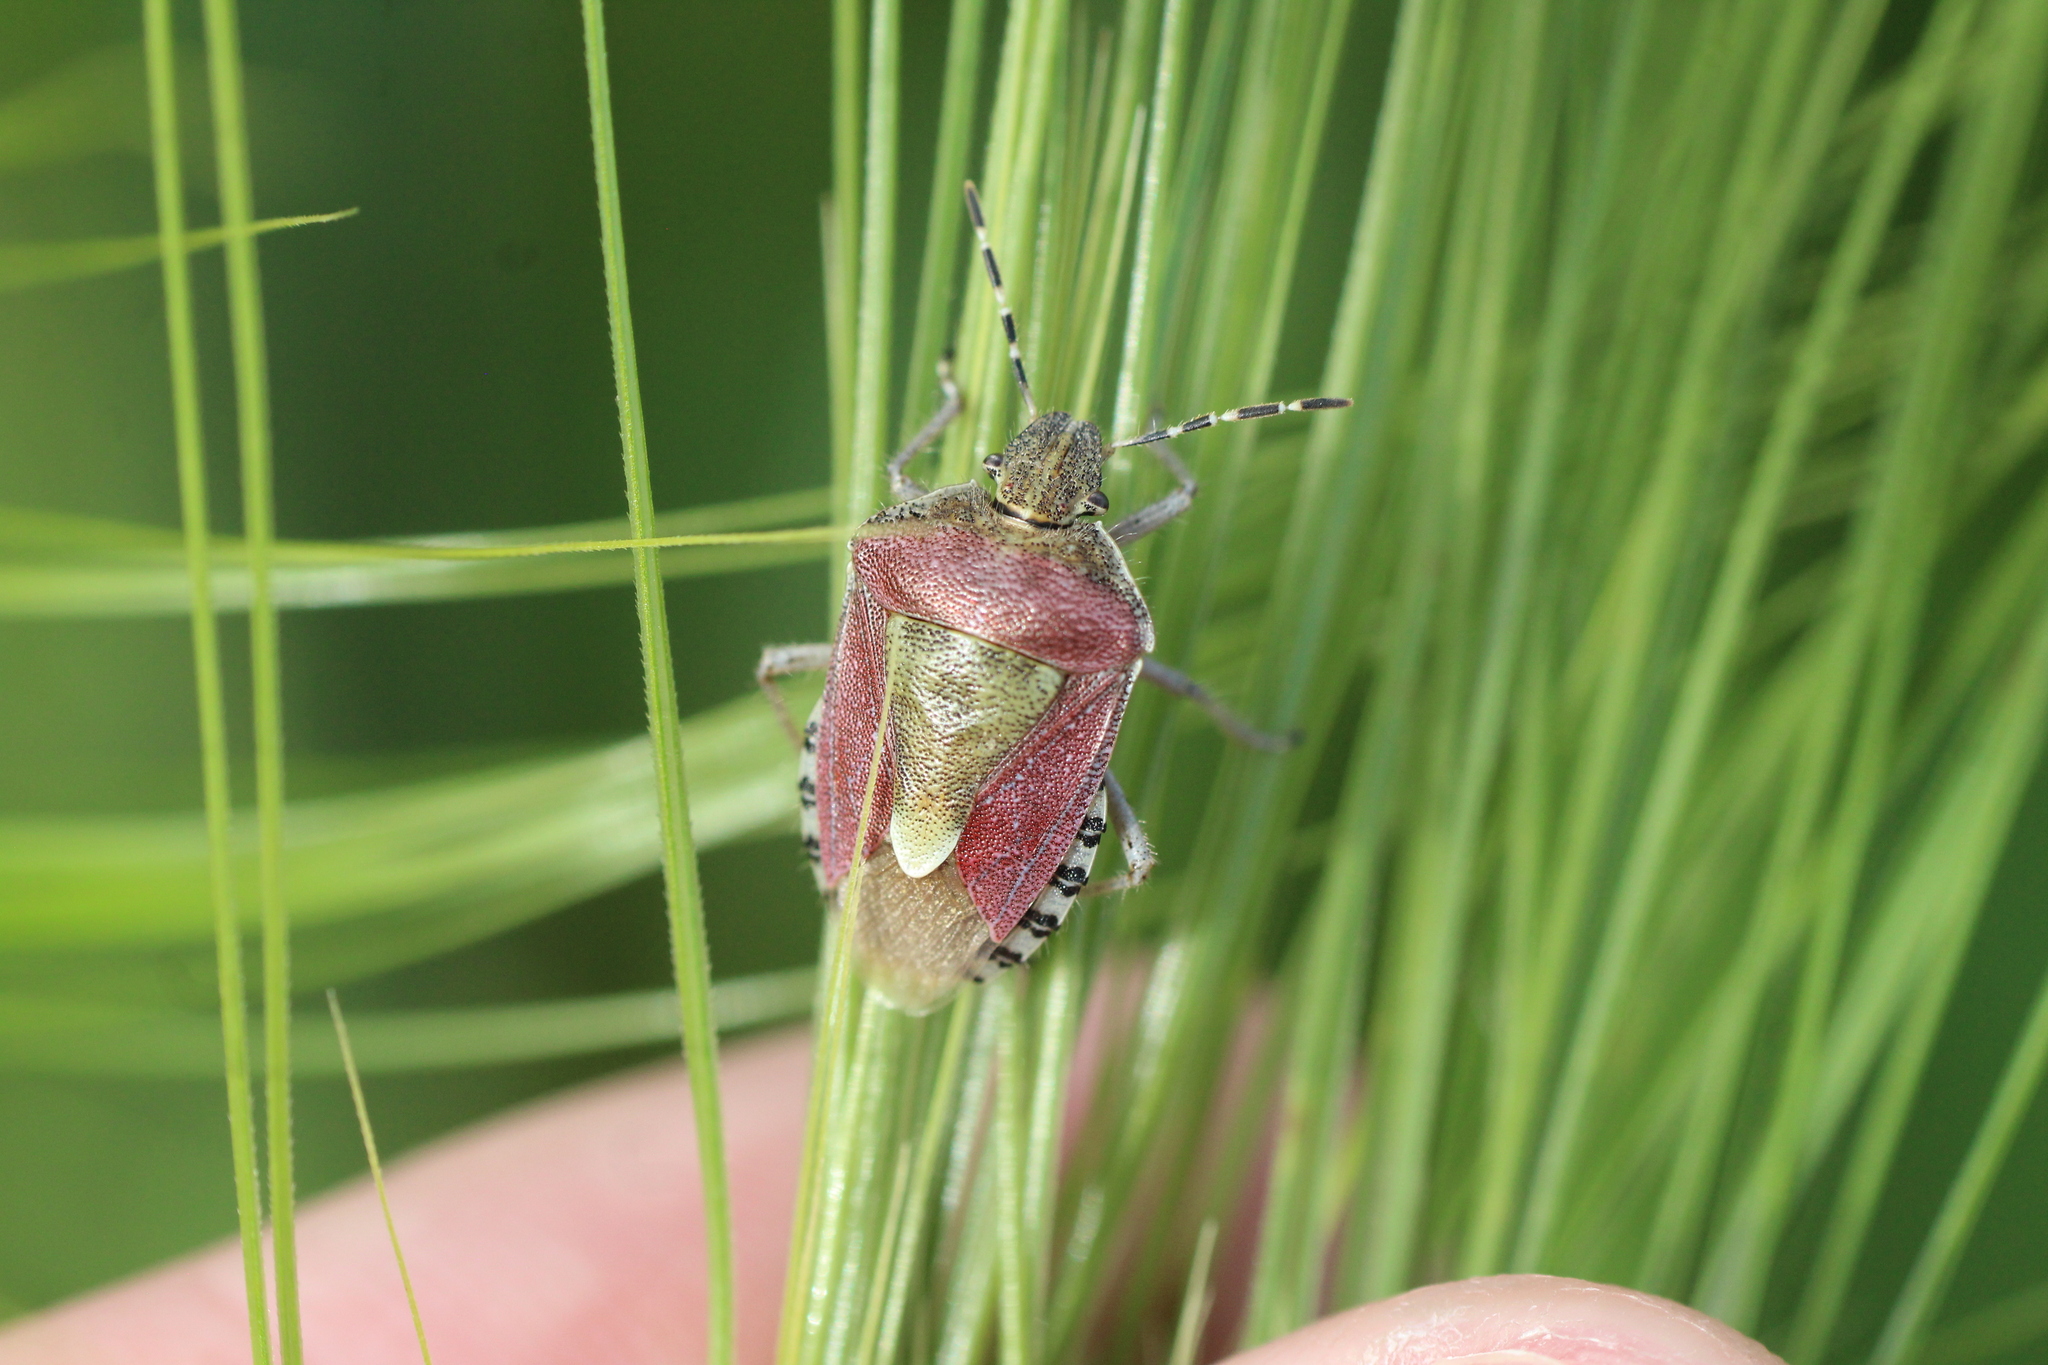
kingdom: Animalia
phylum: Arthropoda
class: Insecta
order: Hemiptera
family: Pentatomidae
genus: Dolycoris
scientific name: Dolycoris baccarum
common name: Sloe bug
